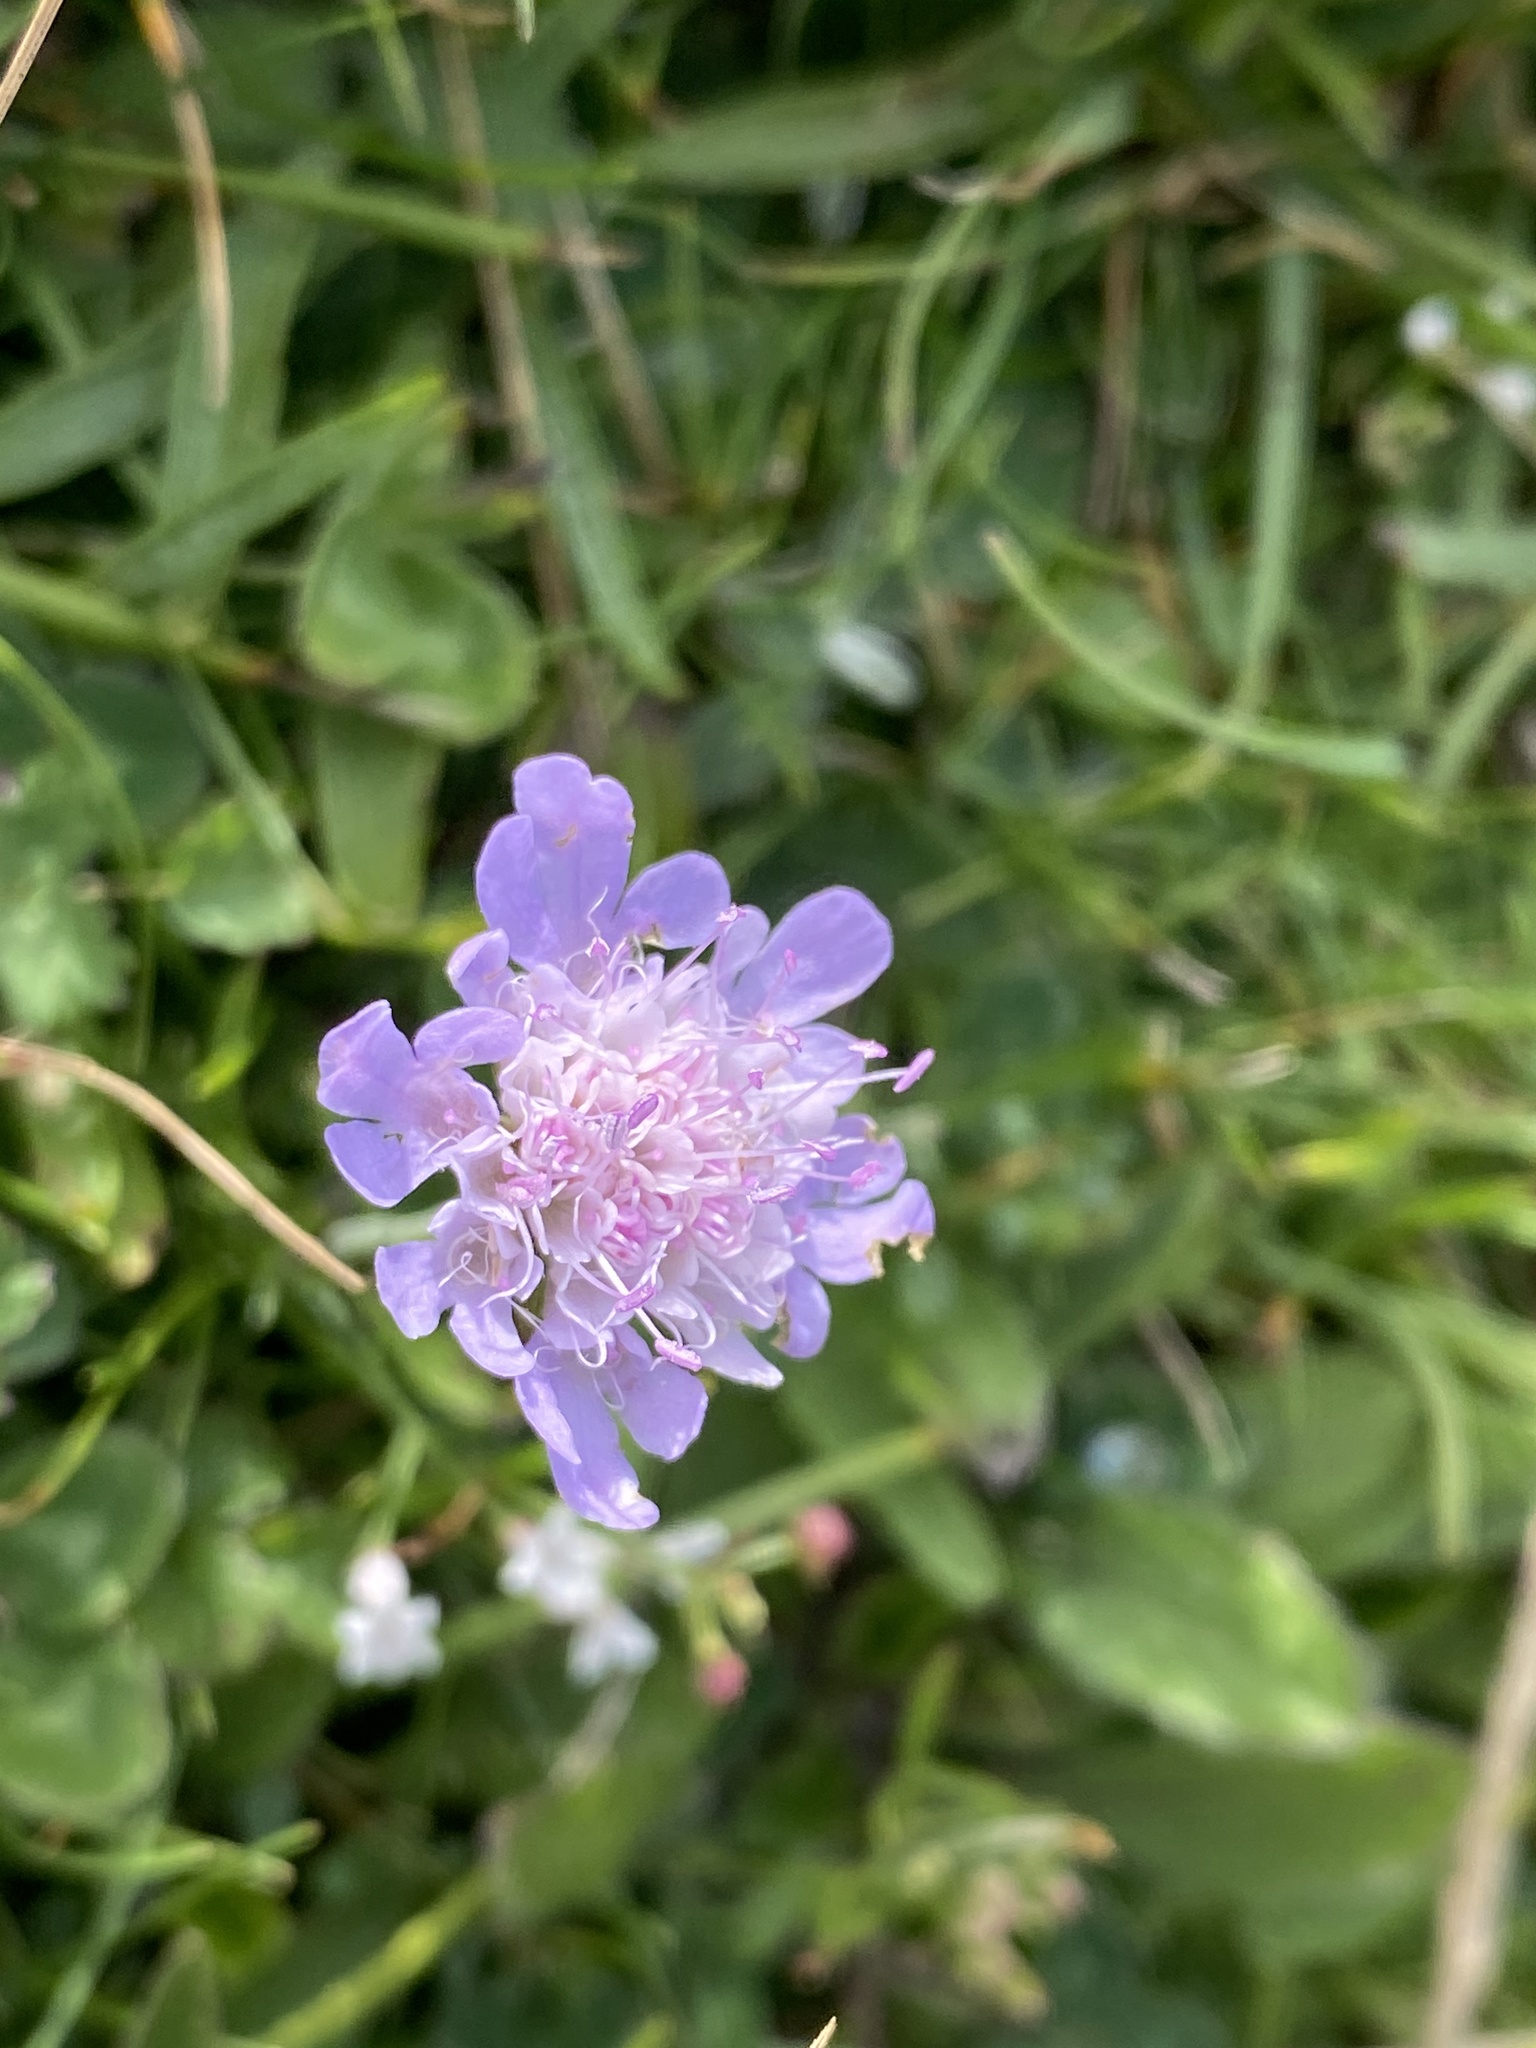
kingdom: Plantae
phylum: Tracheophyta
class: Magnoliopsida
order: Dipsacales
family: Caprifoliaceae
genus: Scabiosa
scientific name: Scabiosa columbaria
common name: Small scabious
